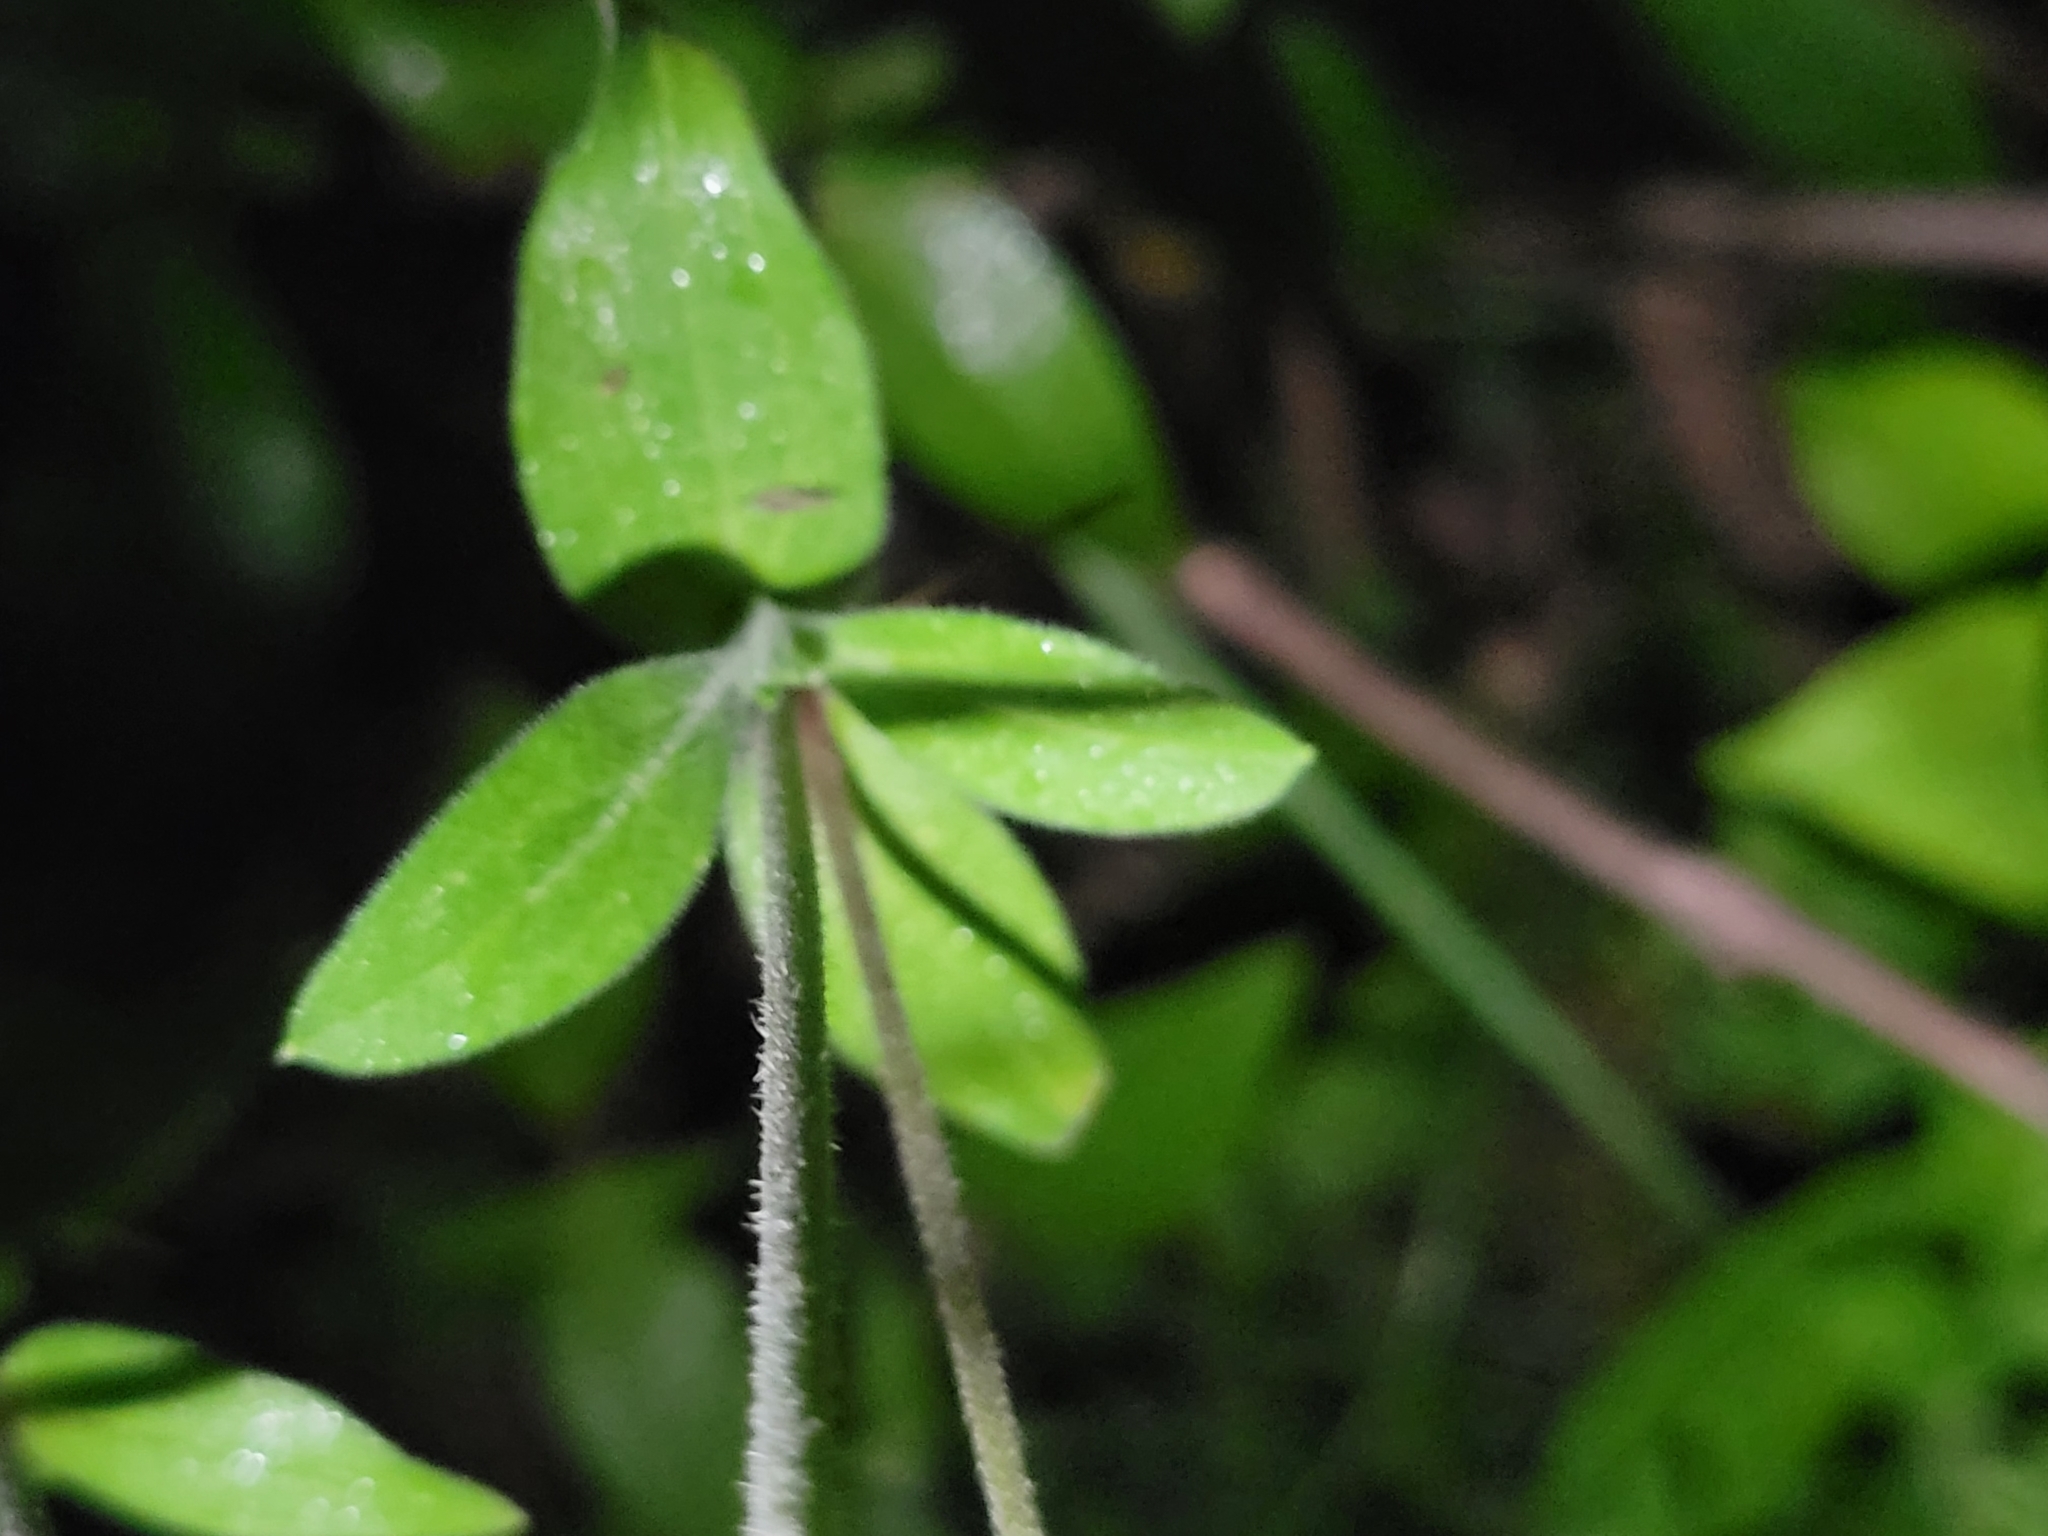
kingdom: Plantae
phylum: Tracheophyta
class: Magnoliopsida
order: Caryophyllales
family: Caryophyllaceae
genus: Silene
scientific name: Silene latifolia
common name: White campion
